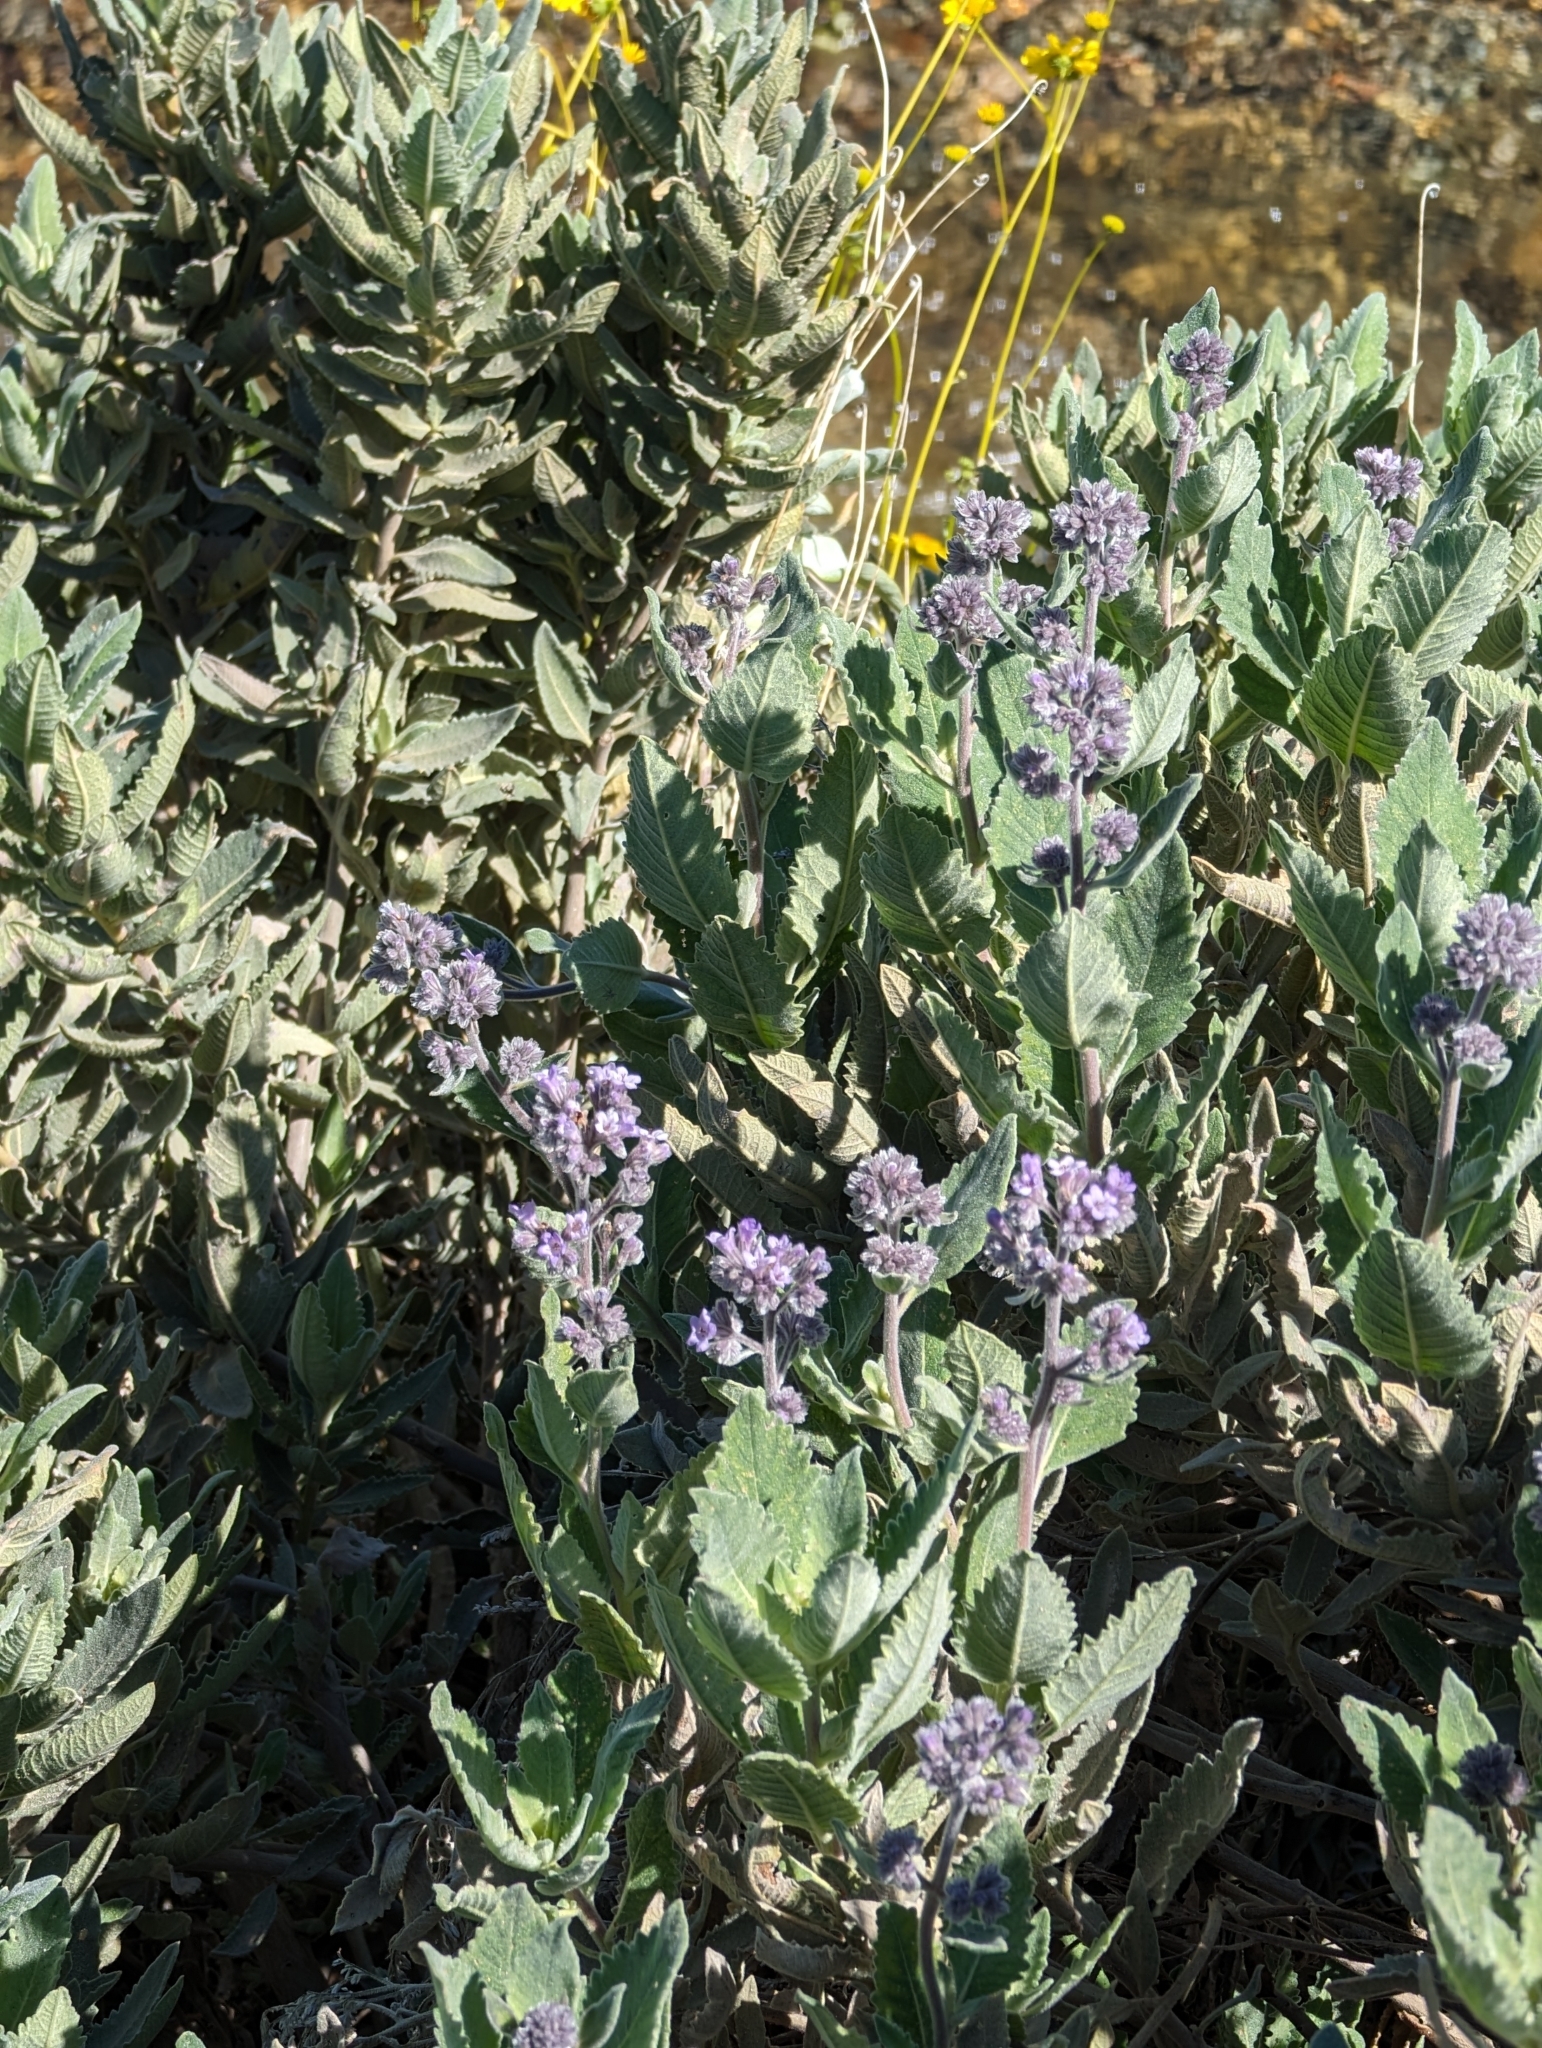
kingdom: Plantae
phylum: Tracheophyta
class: Magnoliopsida
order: Boraginales
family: Namaceae
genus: Eriodictyon
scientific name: Eriodictyon crassifolium
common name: Thick-leaf yerba-santa
